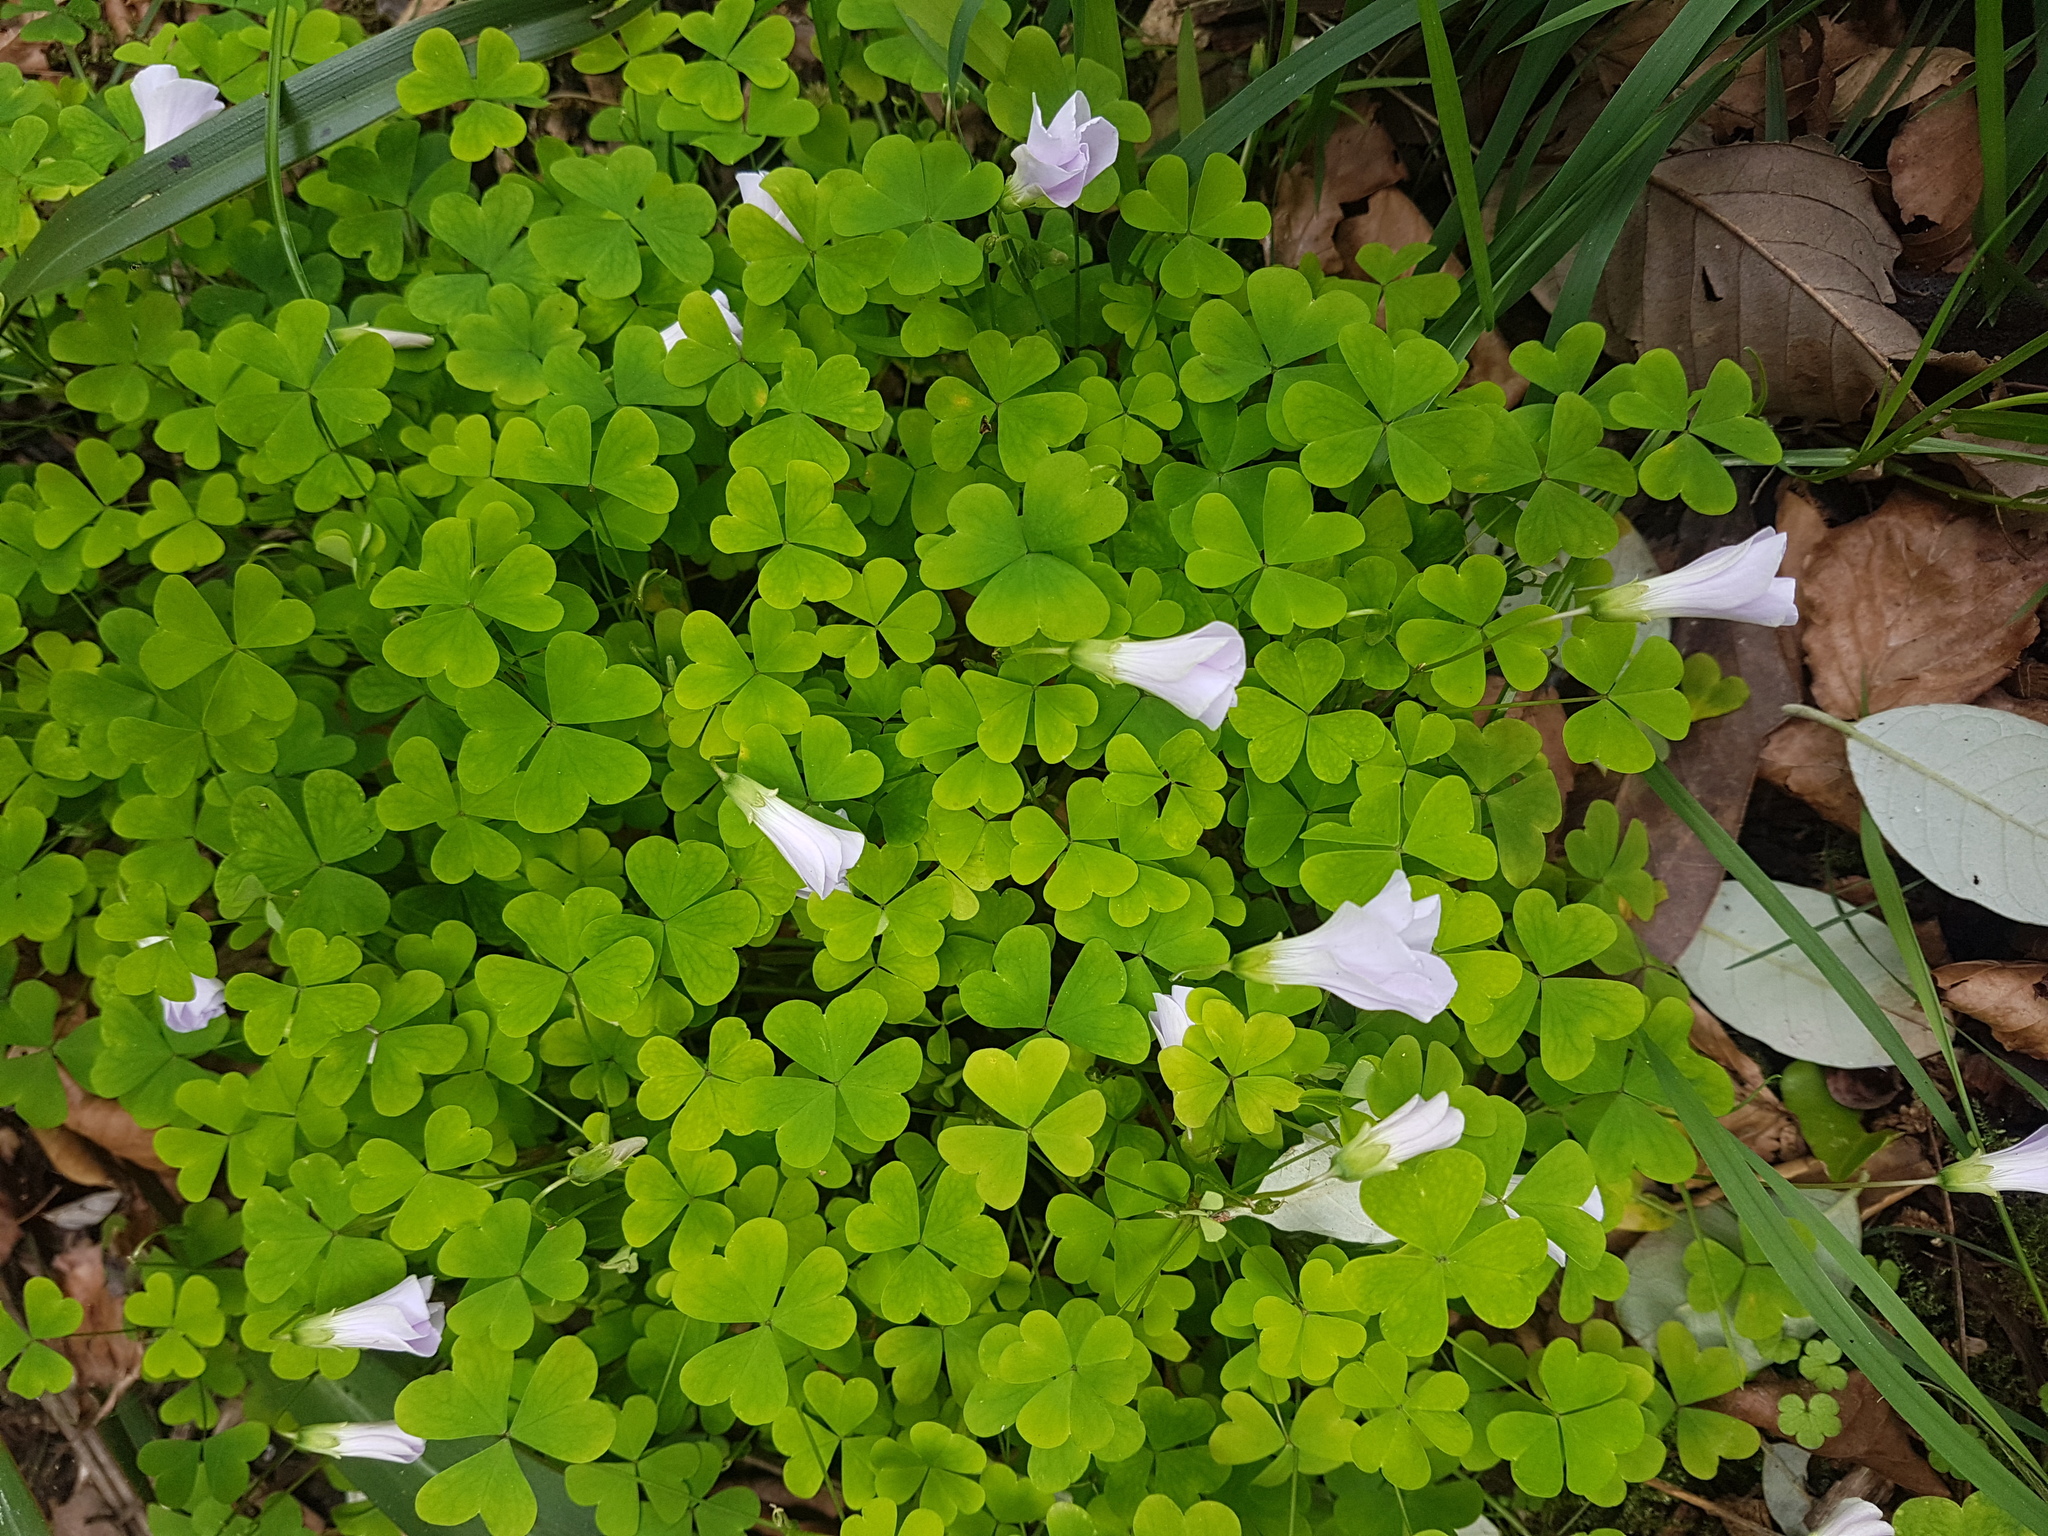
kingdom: Plantae
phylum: Tracheophyta
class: Magnoliopsida
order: Oxalidales
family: Oxalidaceae
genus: Oxalis
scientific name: Oxalis incarnata
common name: Pale pink-sorrel
